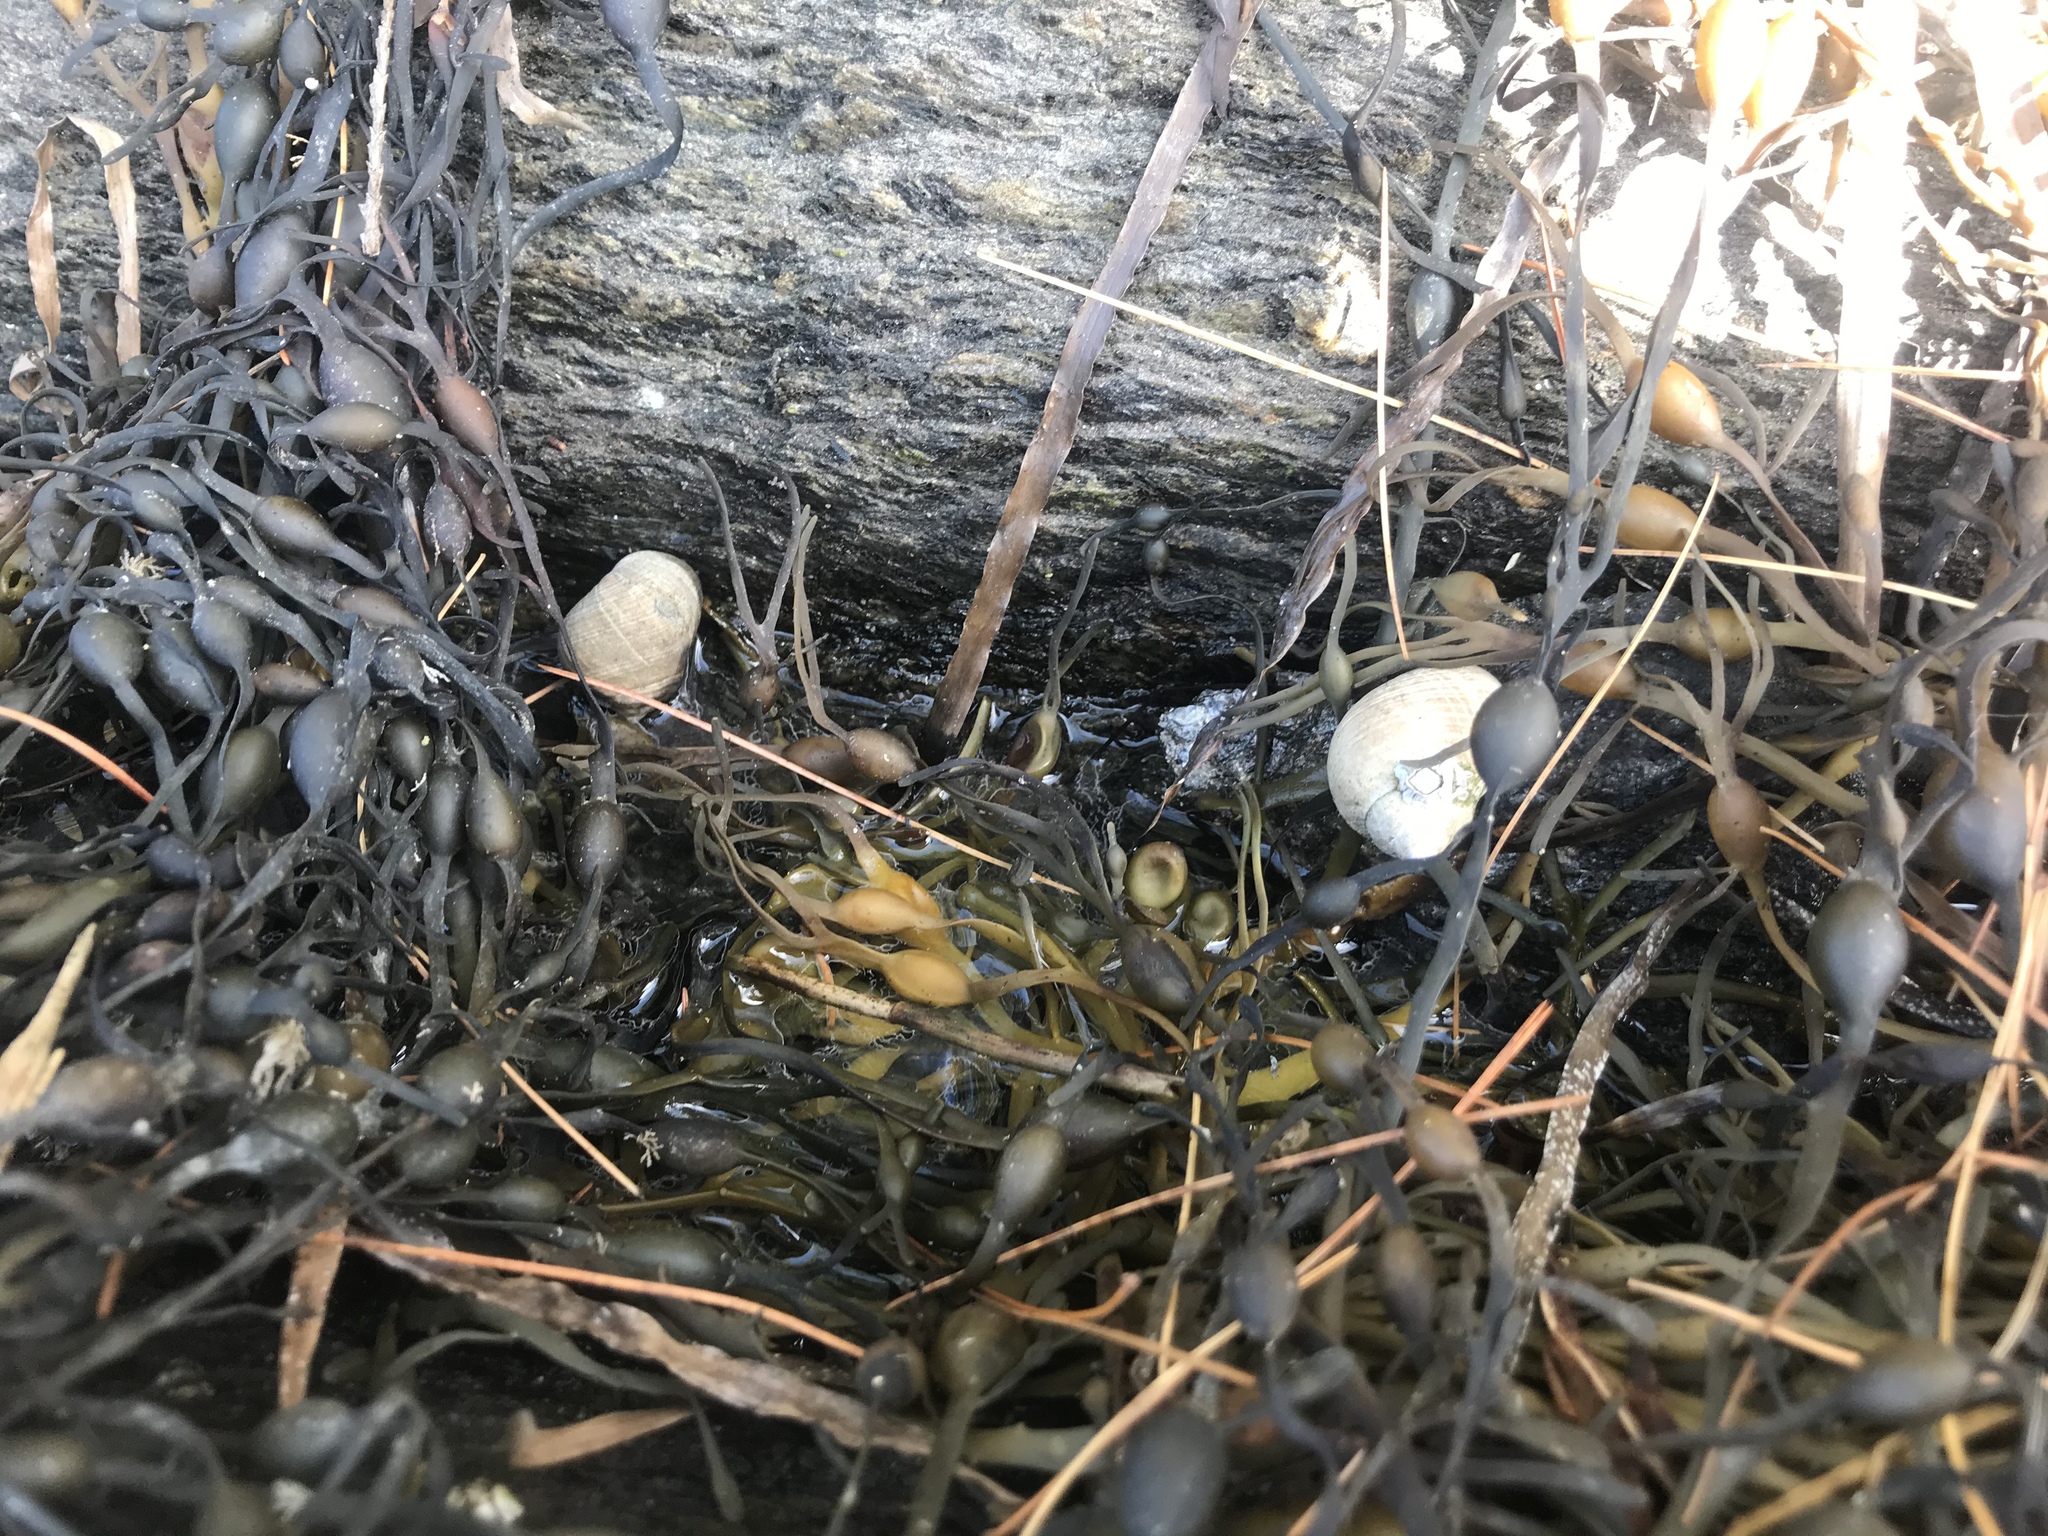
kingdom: Animalia
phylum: Mollusca
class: Gastropoda
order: Littorinimorpha
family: Littorinidae
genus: Littorina
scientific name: Littorina littorea
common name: Common periwinkle
